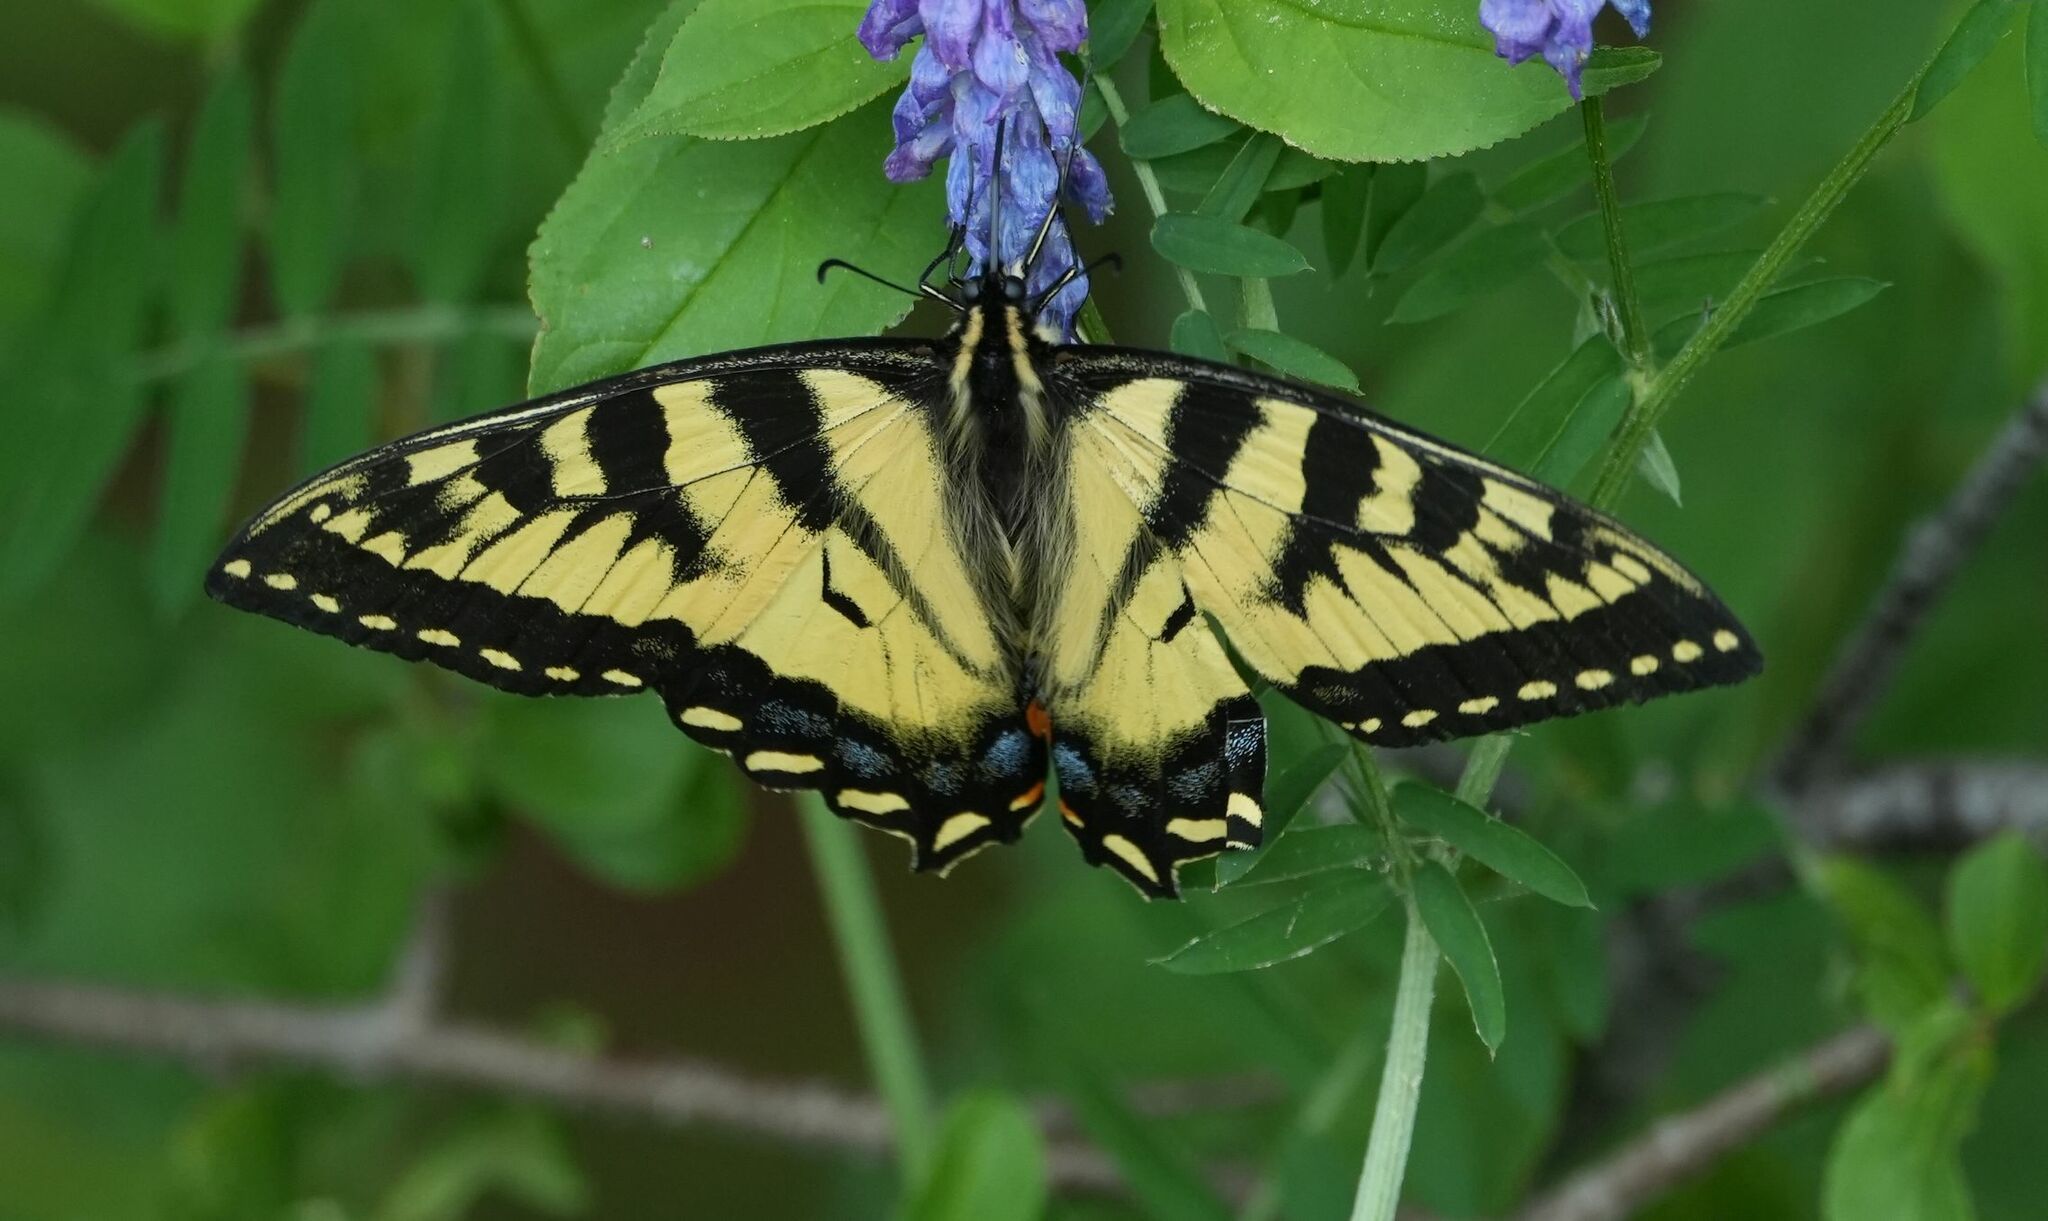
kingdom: Animalia
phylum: Arthropoda
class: Insecta
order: Lepidoptera
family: Papilionidae
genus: Papilio
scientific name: Papilio canadensis
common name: Canadian tiger swallowtail
